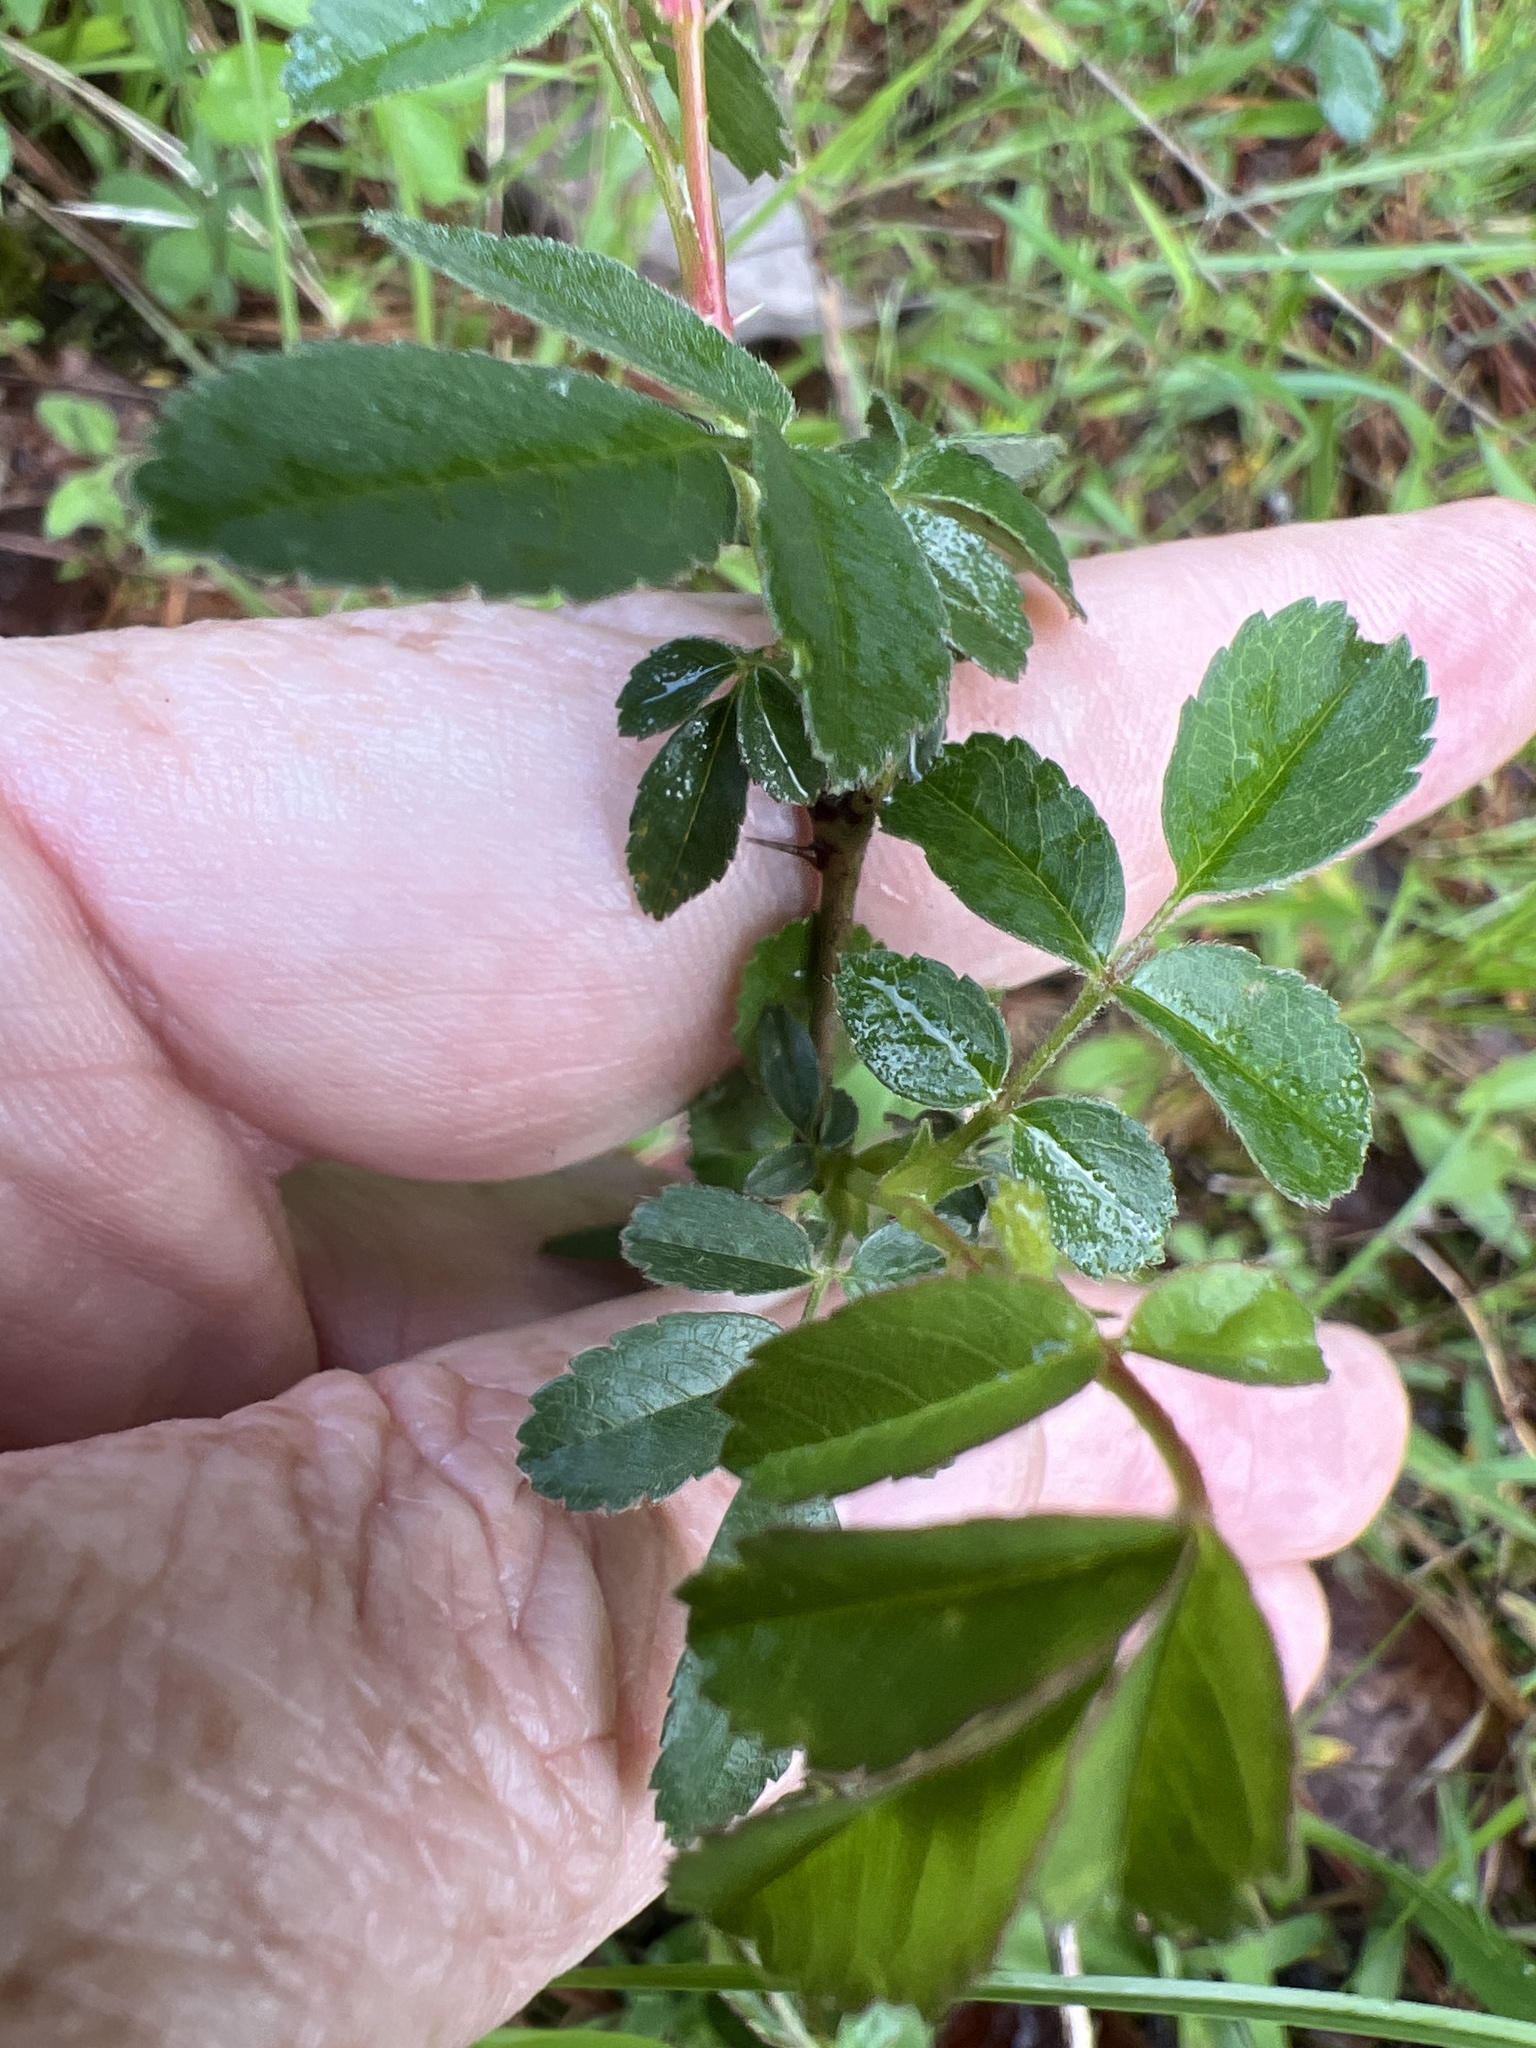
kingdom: Plantae
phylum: Tracheophyta
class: Magnoliopsida
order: Rosales
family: Rosaceae
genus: Rosa
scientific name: Rosa carolina
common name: Pasture rose
